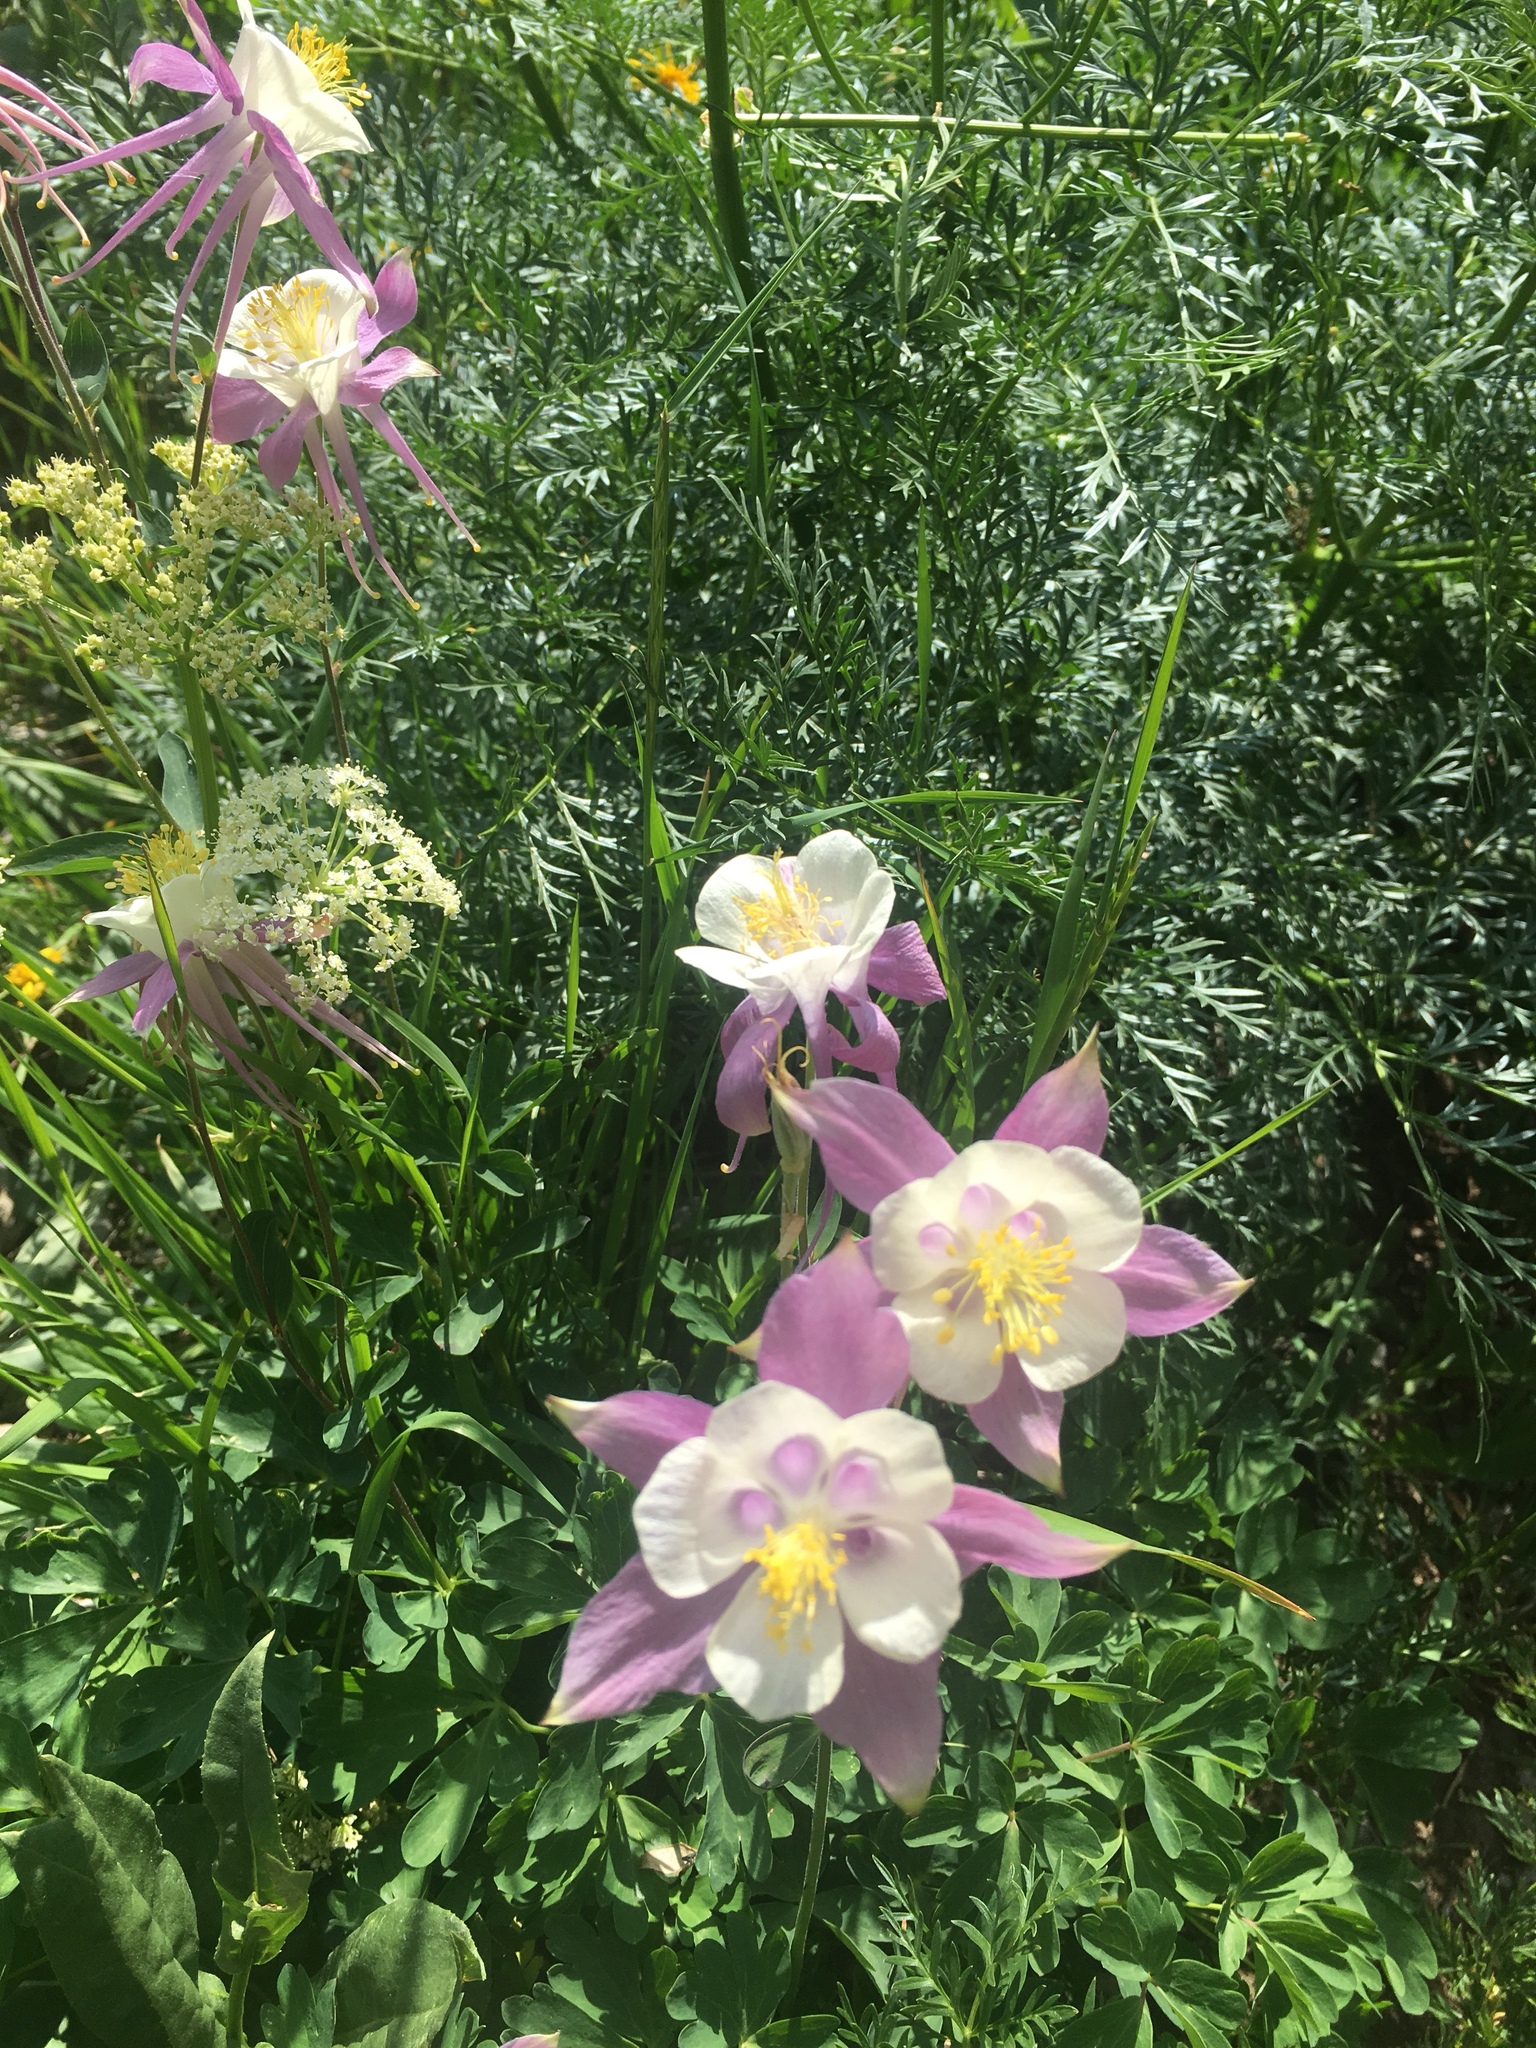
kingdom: Plantae
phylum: Tracheophyta
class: Magnoliopsida
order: Ranunculales
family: Ranunculaceae
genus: Aquilegia
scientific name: Aquilegia coerulea
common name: Rocky mountain columbine
